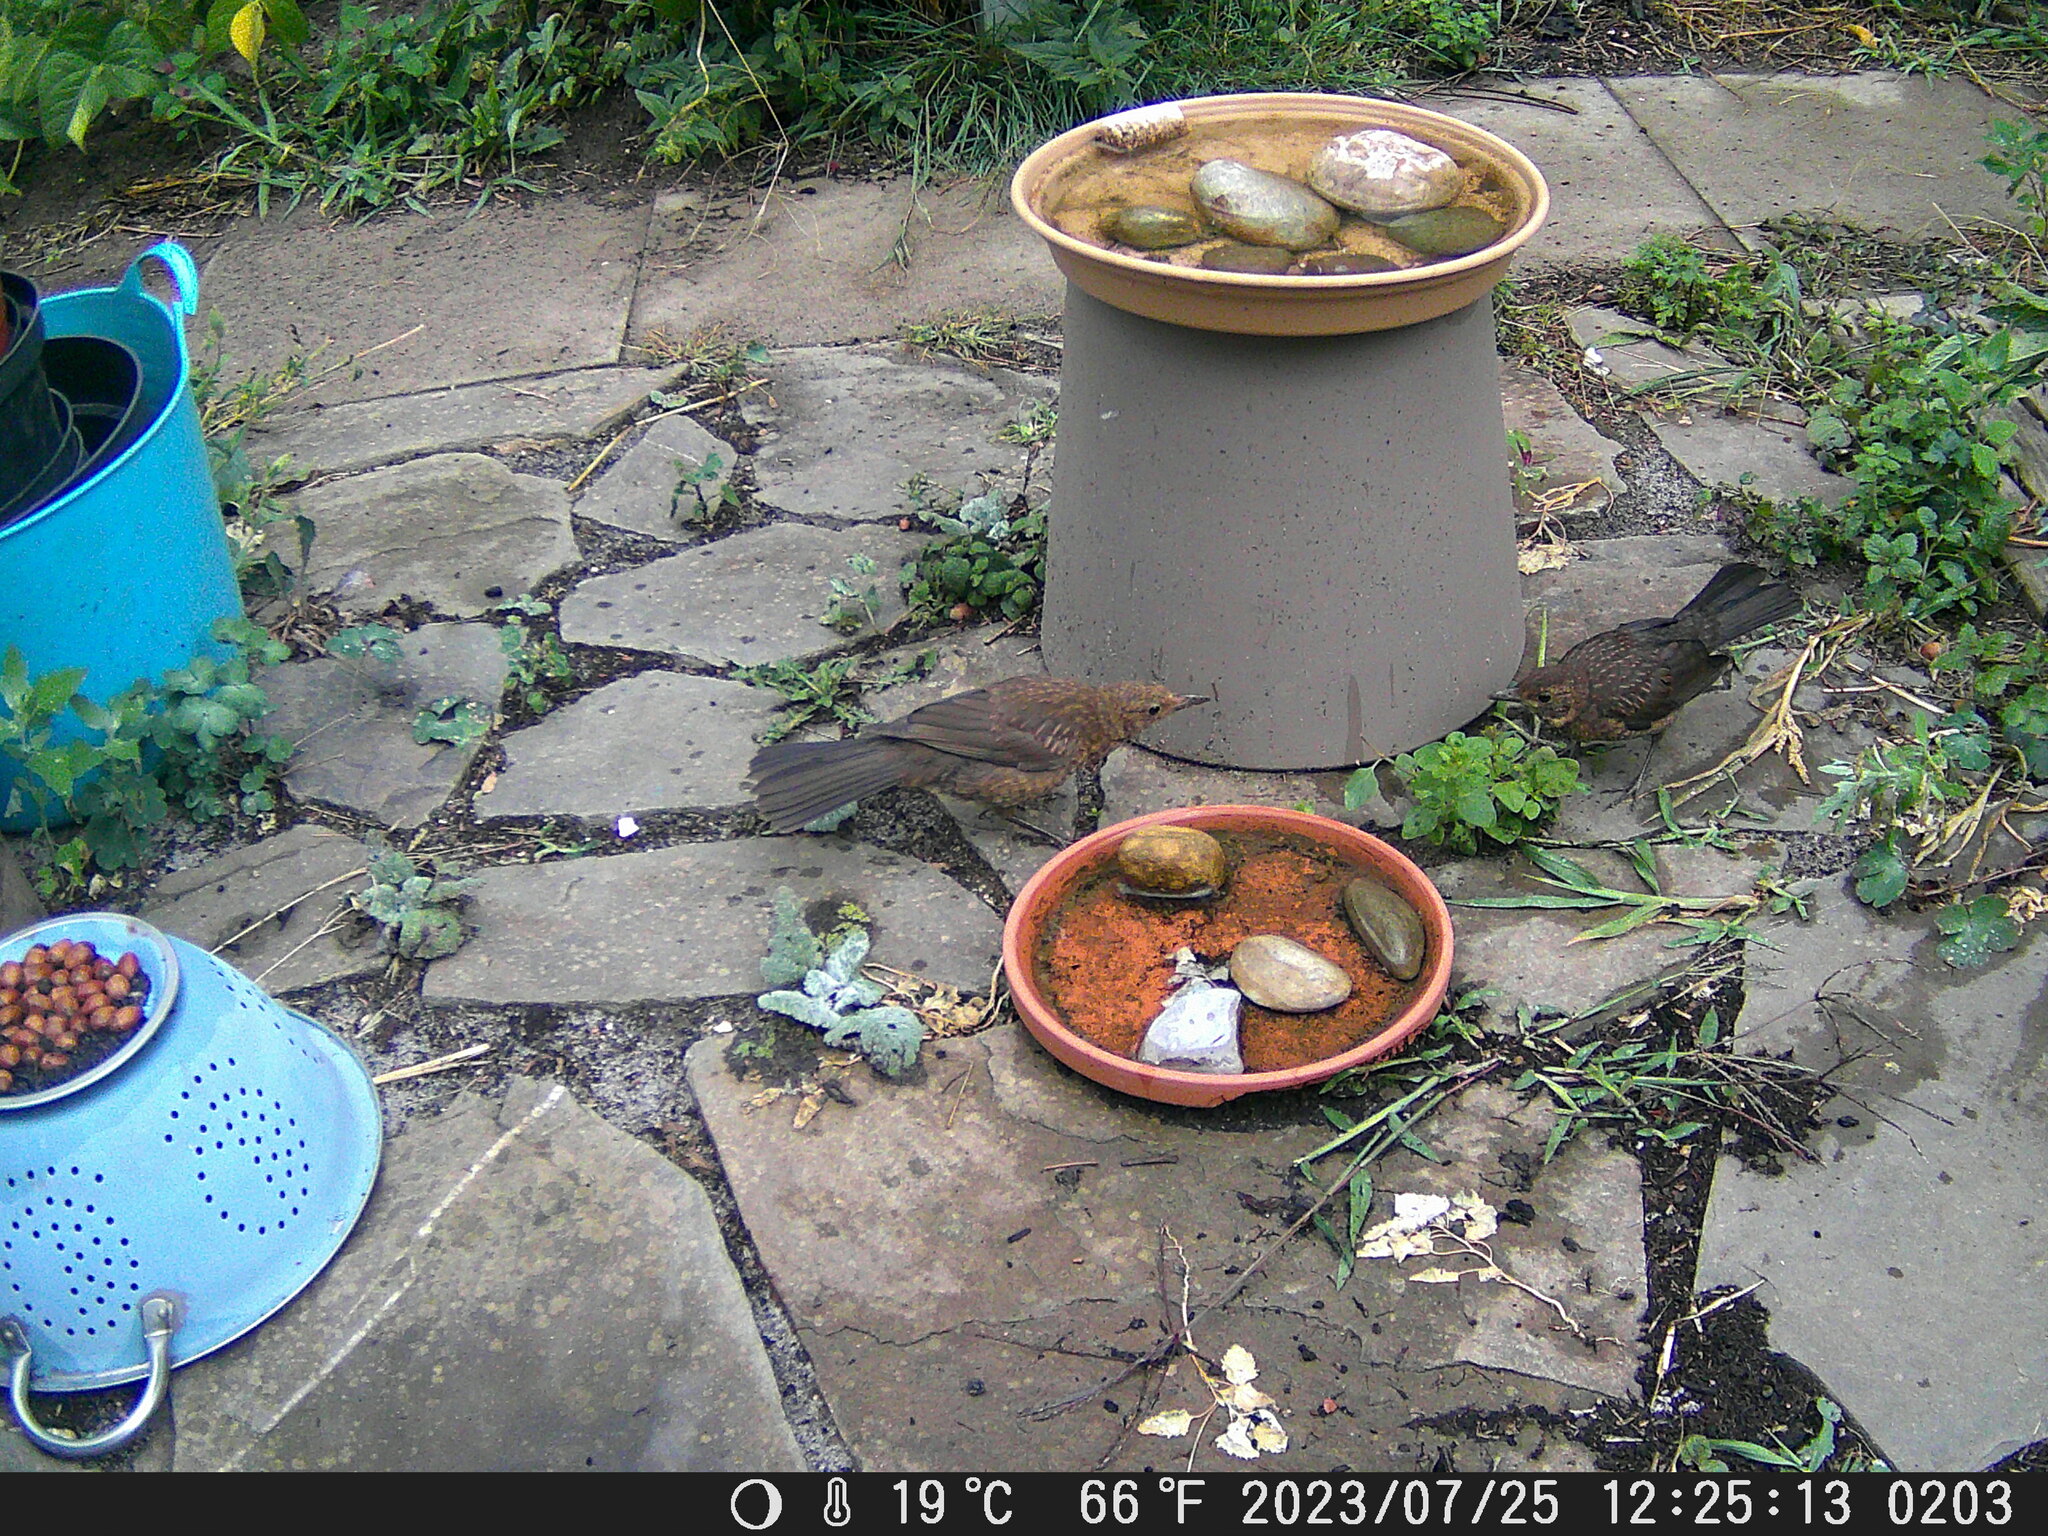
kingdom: Animalia
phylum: Chordata
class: Aves
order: Passeriformes
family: Turdidae
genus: Turdus
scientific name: Turdus merula
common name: Common blackbird
